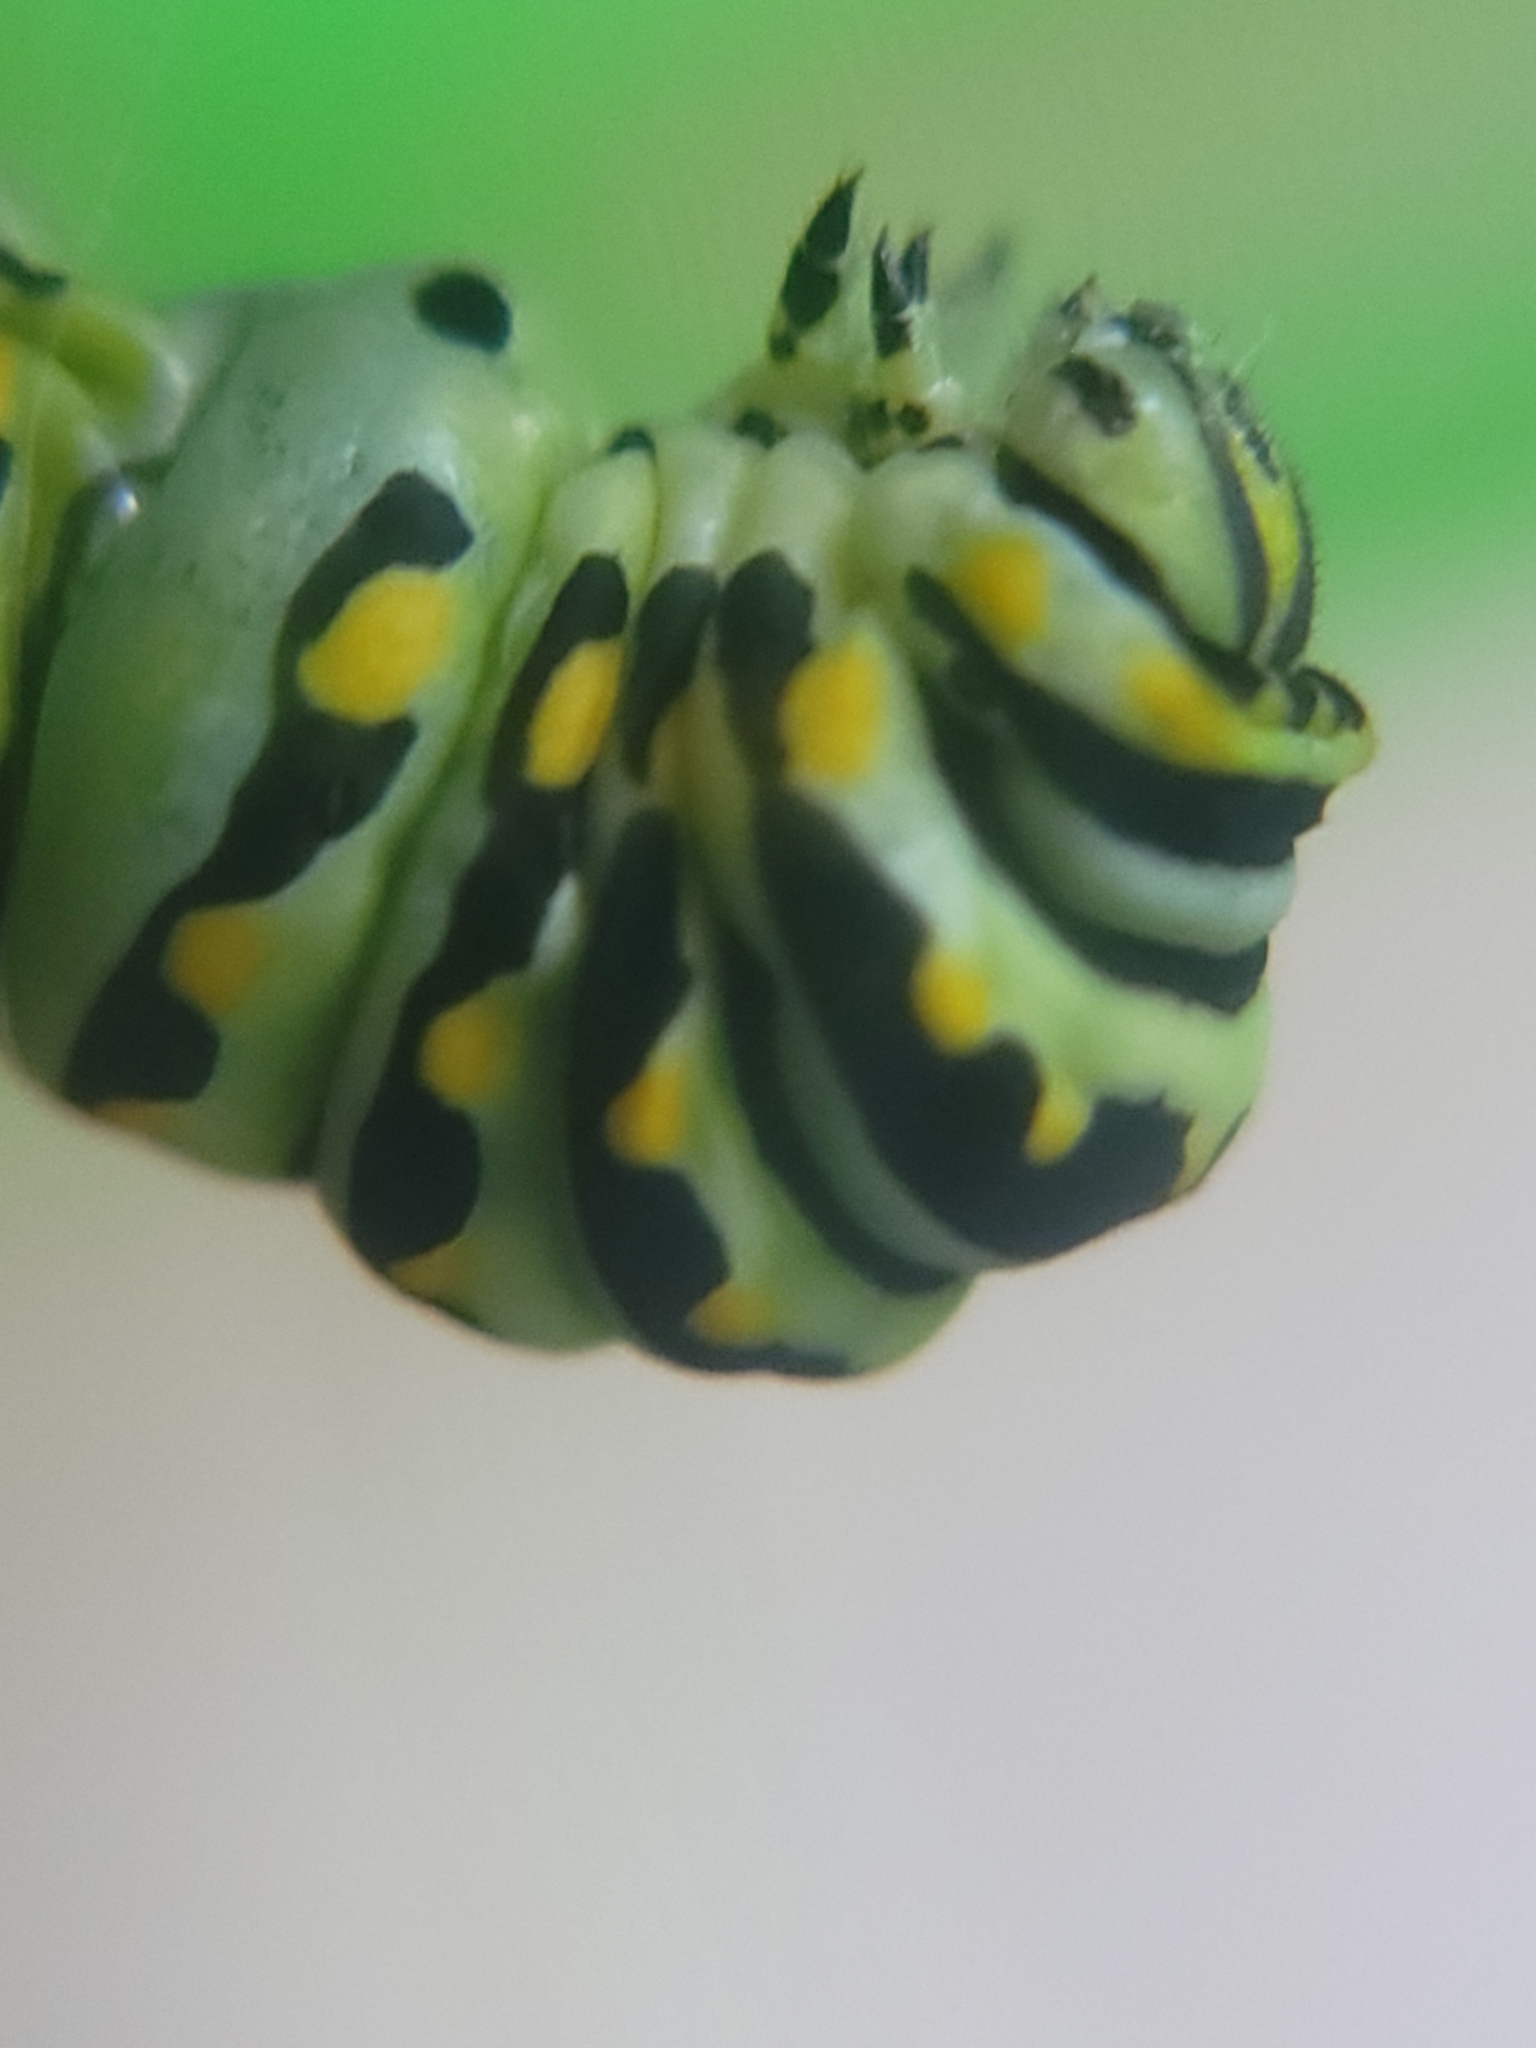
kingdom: Animalia
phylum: Arthropoda
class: Insecta
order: Lepidoptera
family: Papilionidae
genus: Papilio
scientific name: Papilio polyxenes
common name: Black swallowtail
